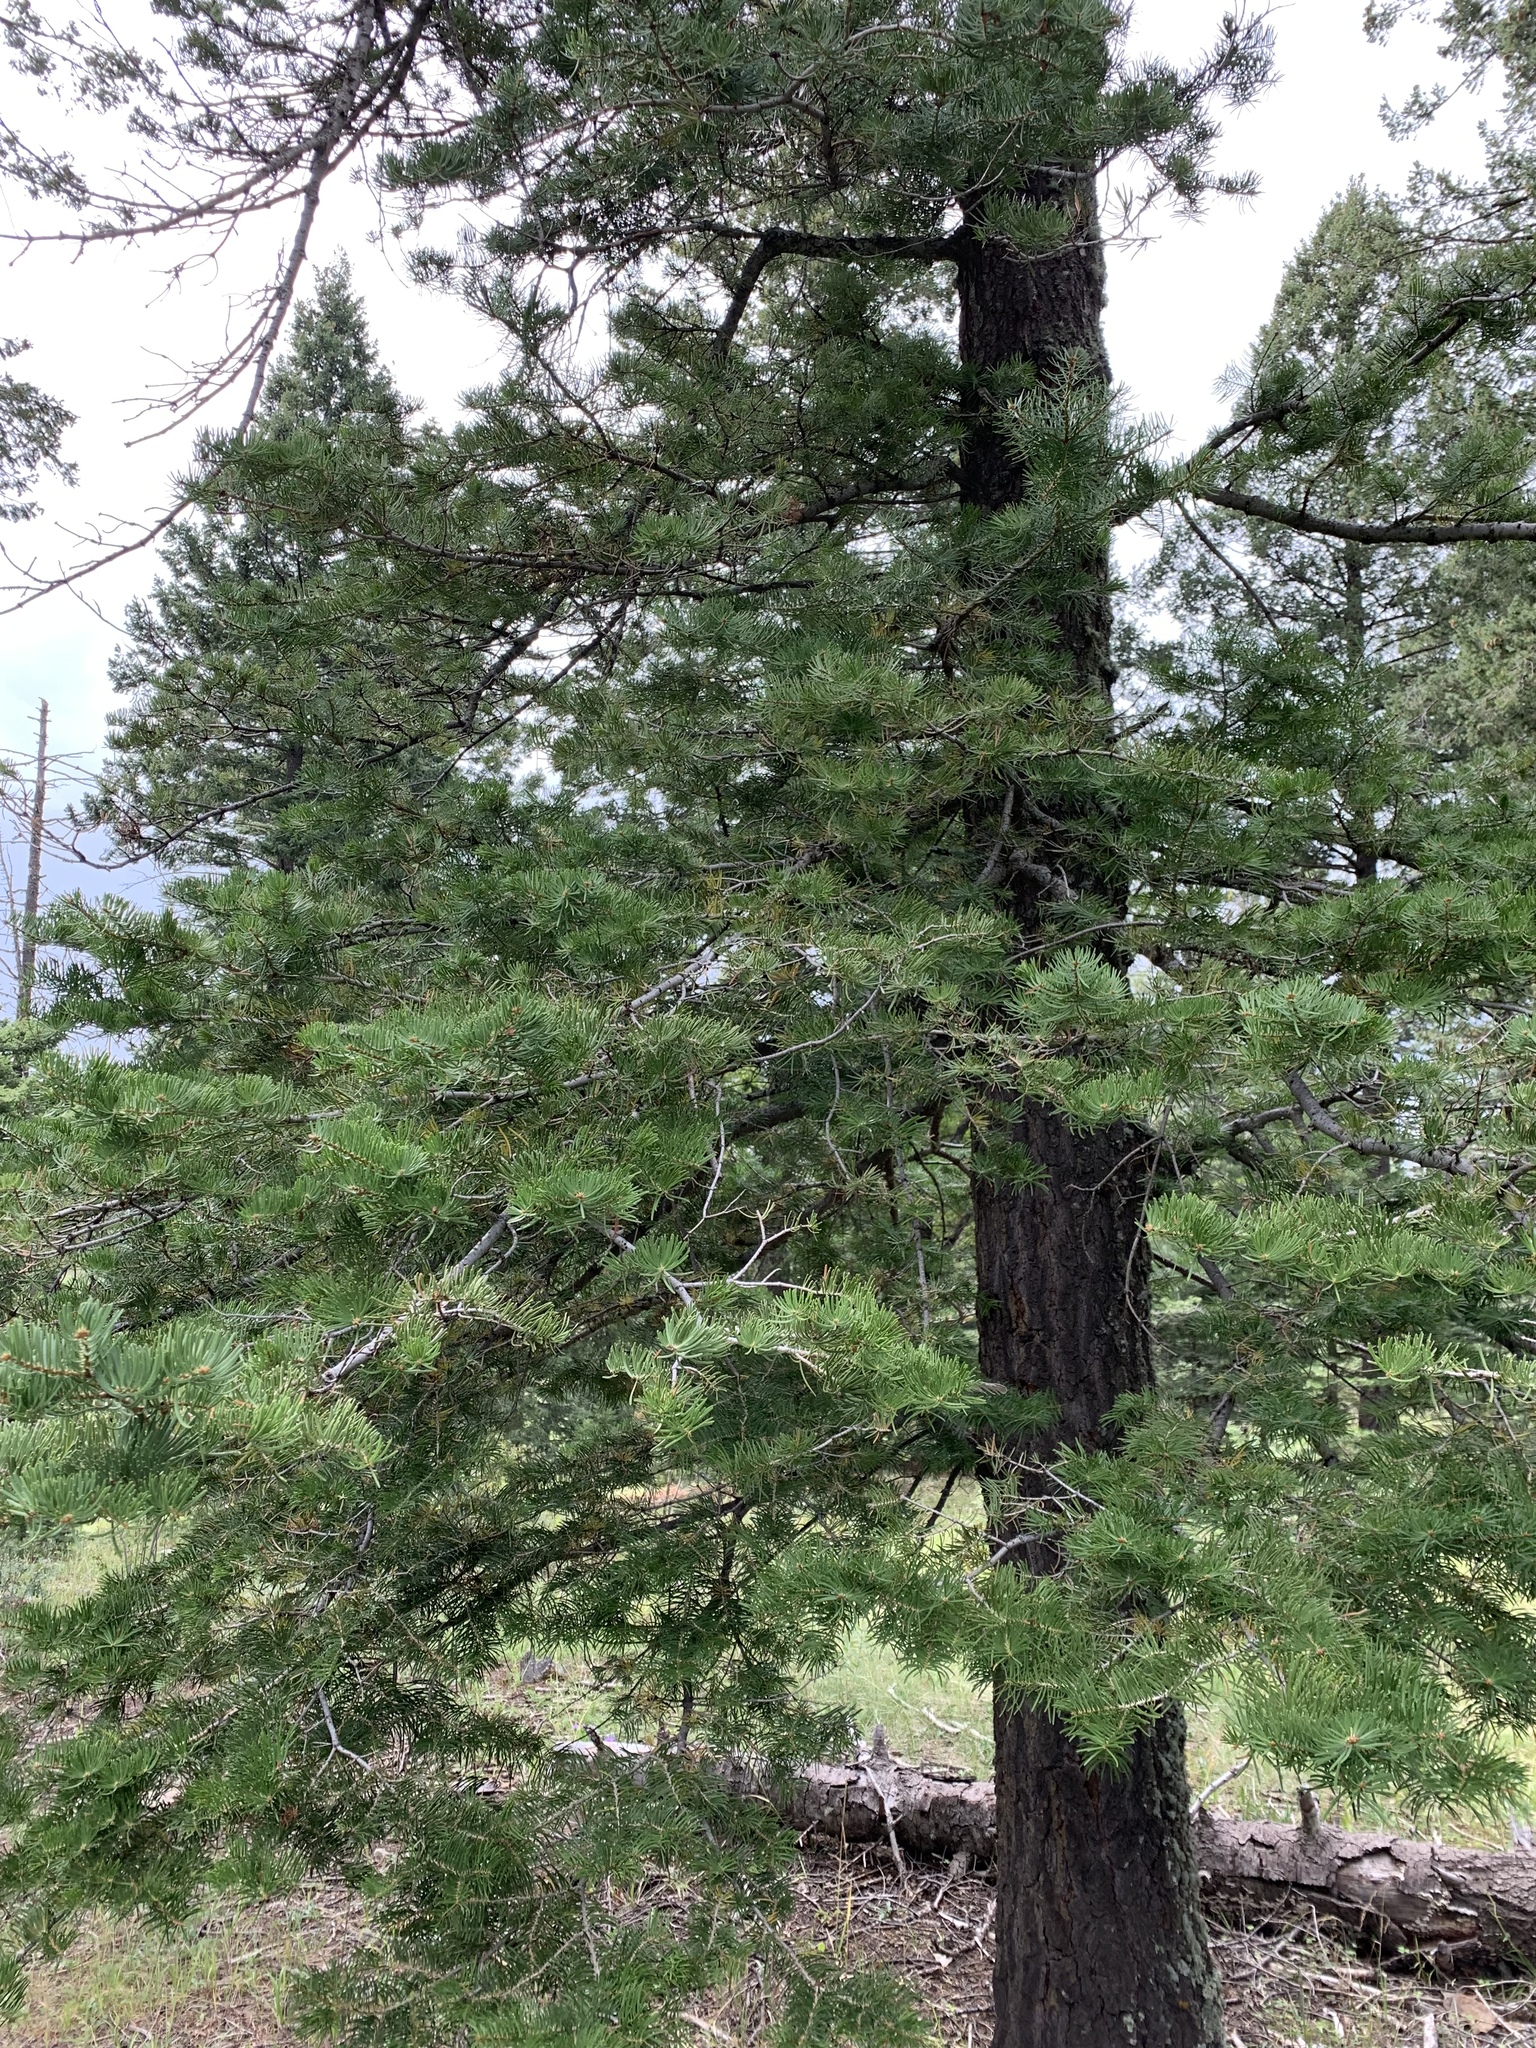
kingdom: Plantae
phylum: Tracheophyta
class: Pinopsida
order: Pinales
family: Pinaceae
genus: Abies
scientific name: Abies concolor
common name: Colorado fir
